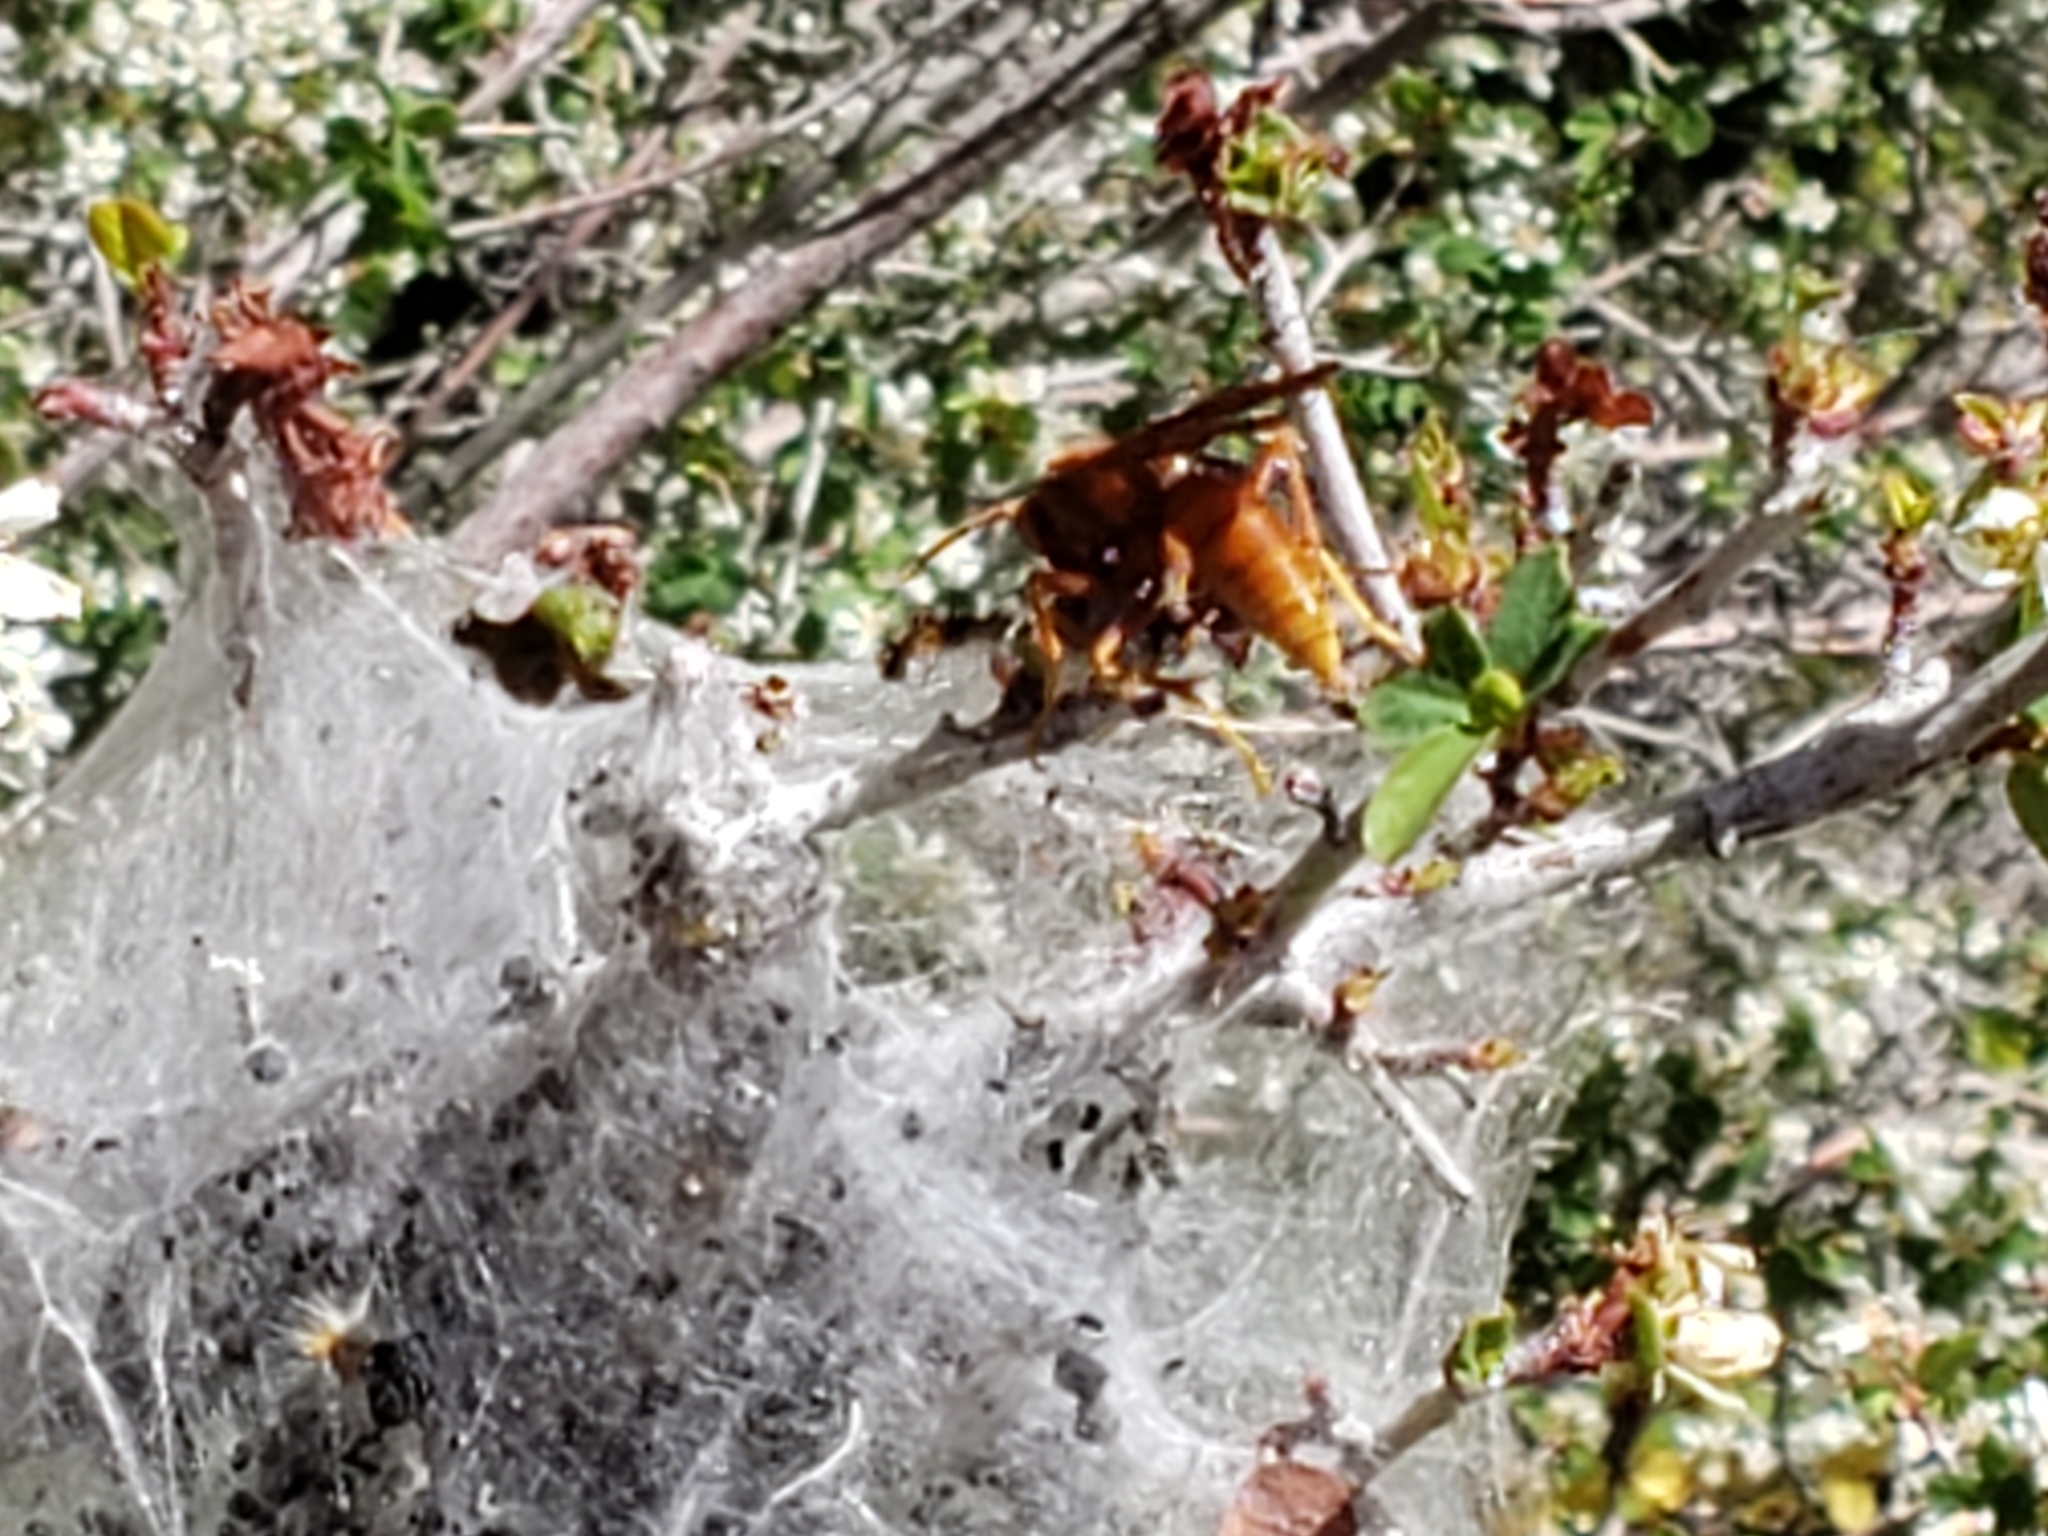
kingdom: Animalia
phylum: Arthropoda
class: Insecta
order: Hymenoptera
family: Eumenidae
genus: Polistes
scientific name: Polistes comanchus
